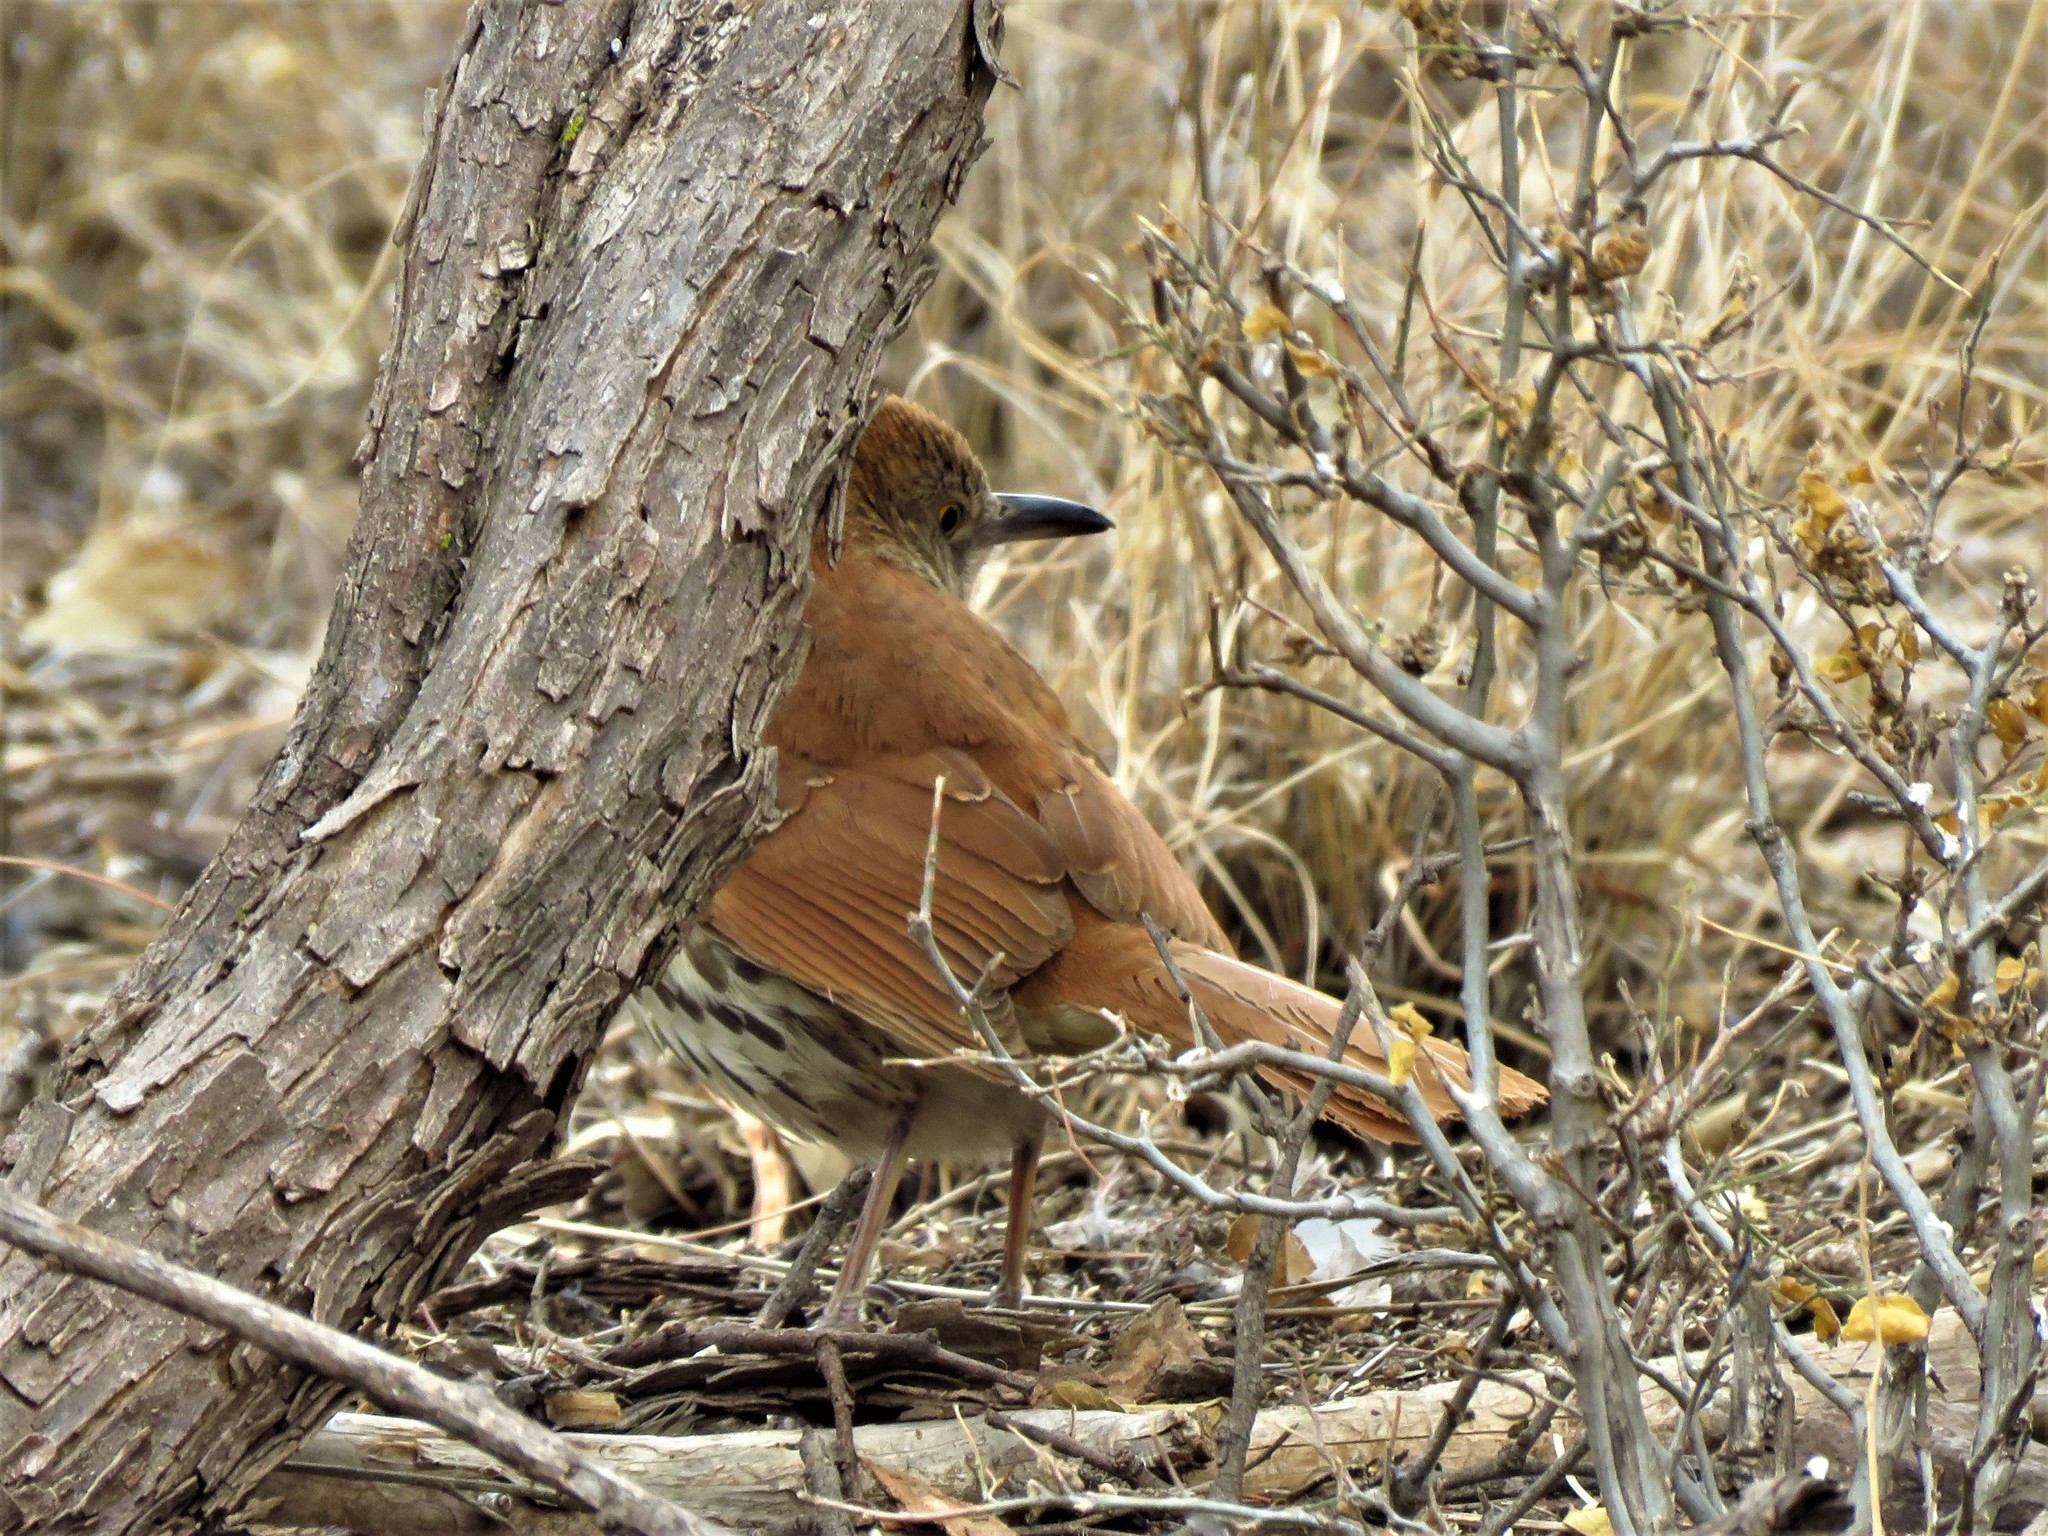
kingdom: Animalia
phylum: Chordata
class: Aves
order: Passeriformes
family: Mimidae
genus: Toxostoma
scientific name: Toxostoma rufum
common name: Brown thrasher
